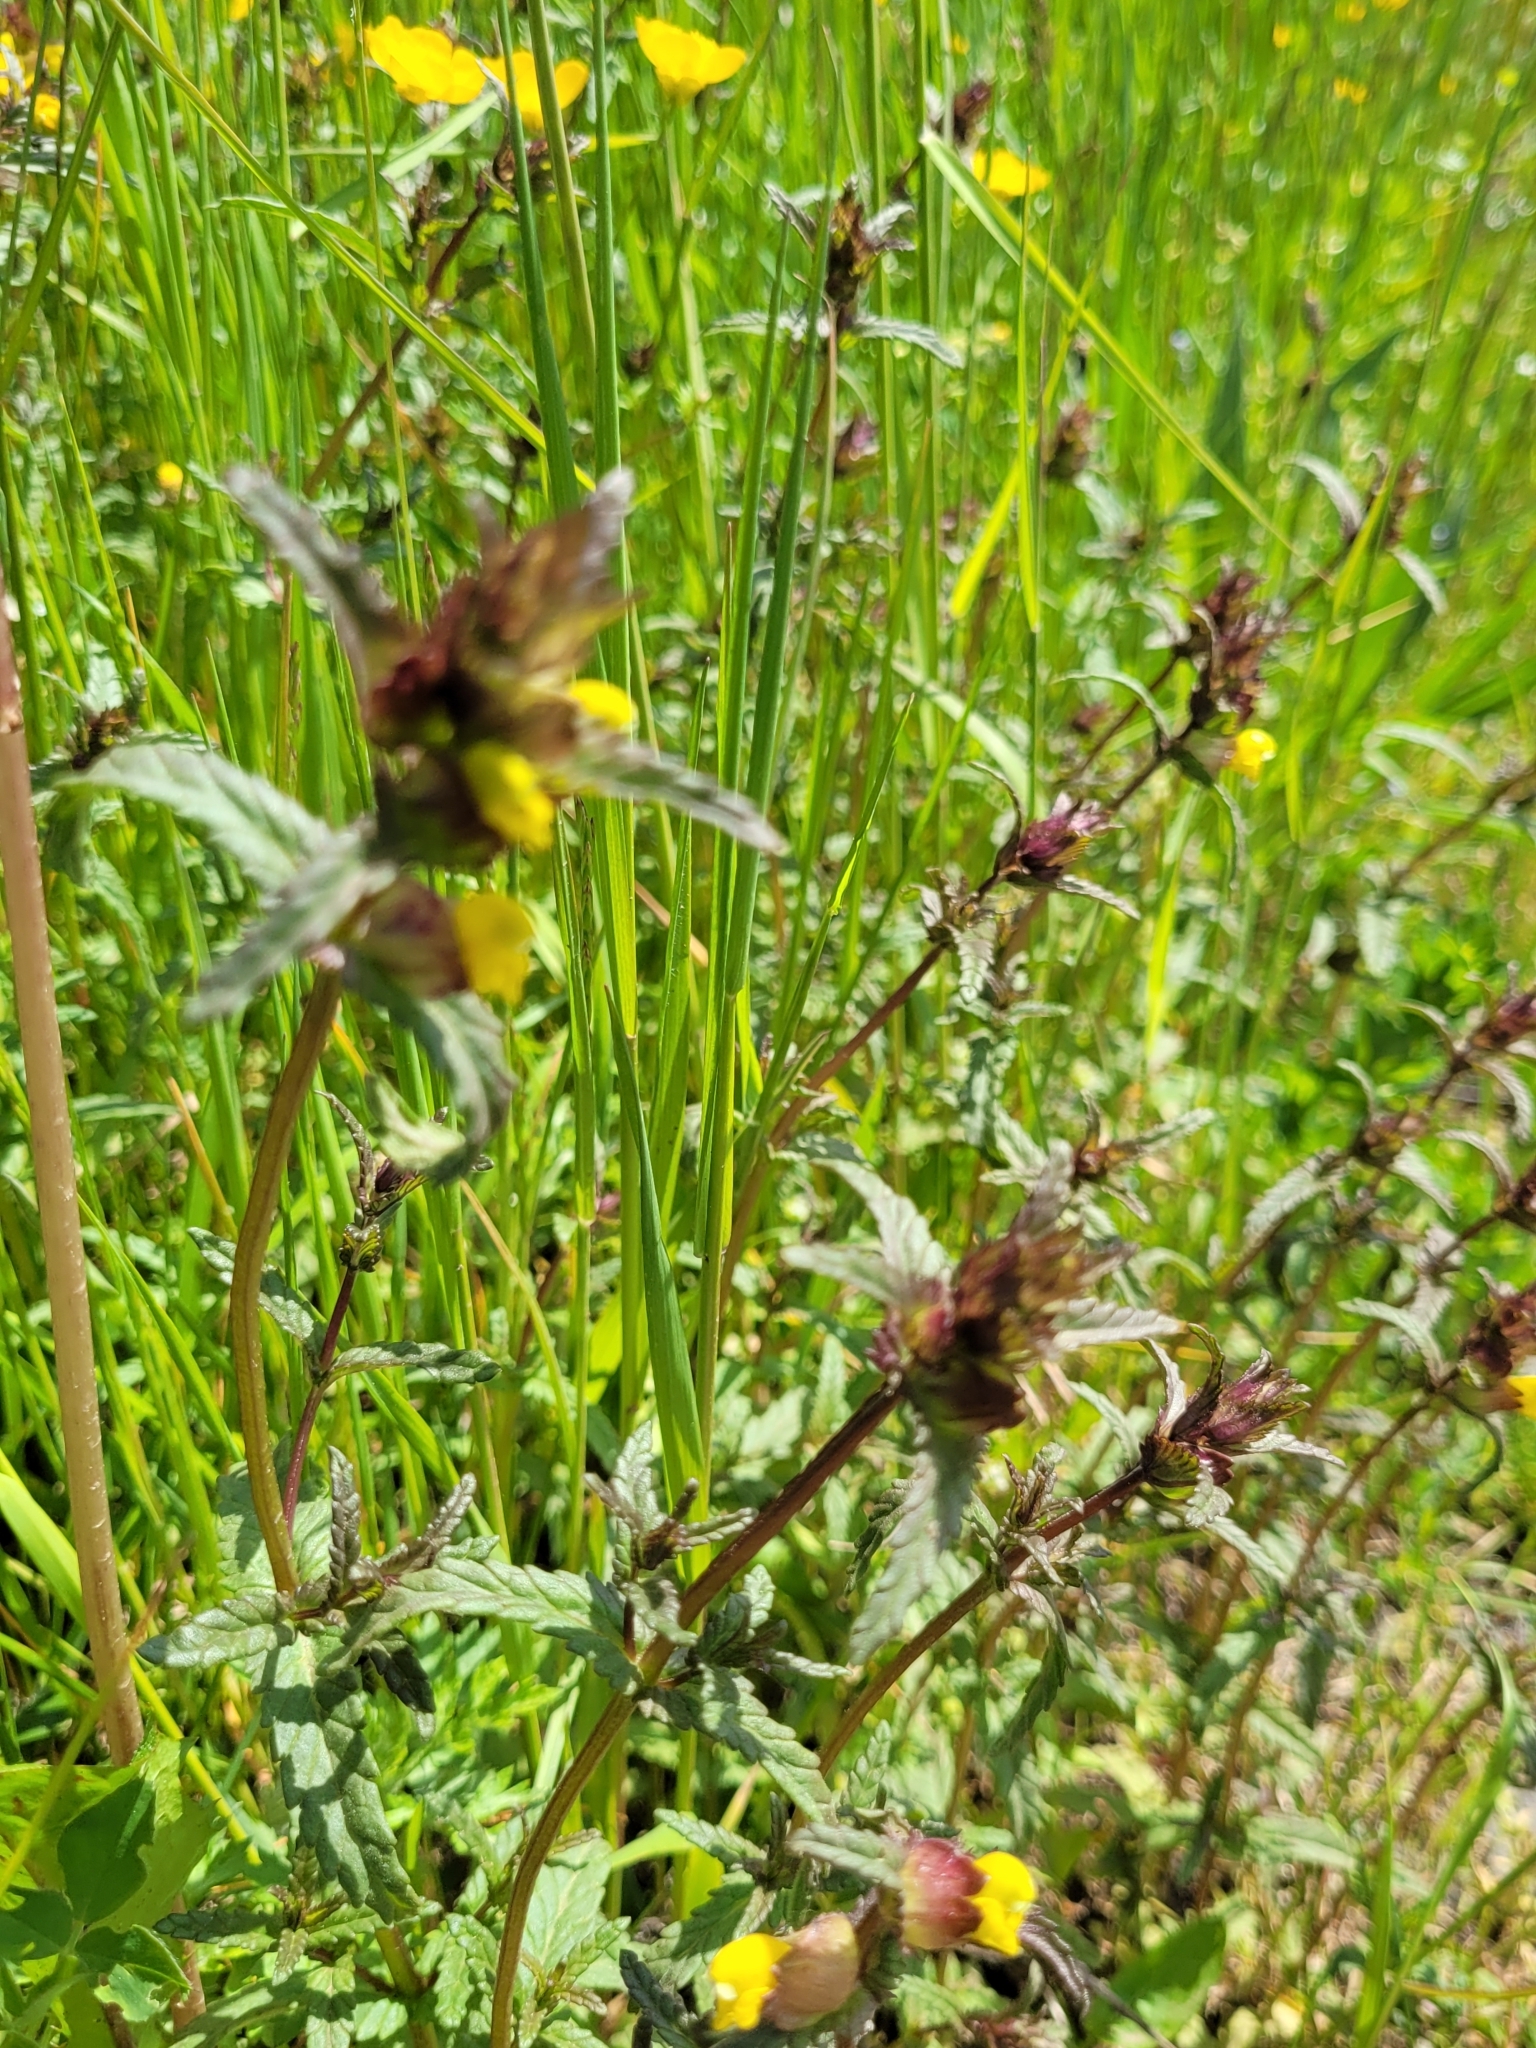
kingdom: Plantae
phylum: Tracheophyta
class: Magnoliopsida
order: Lamiales
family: Orobanchaceae
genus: Rhinanthus
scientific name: Rhinanthus minor
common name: Yellow-rattle
